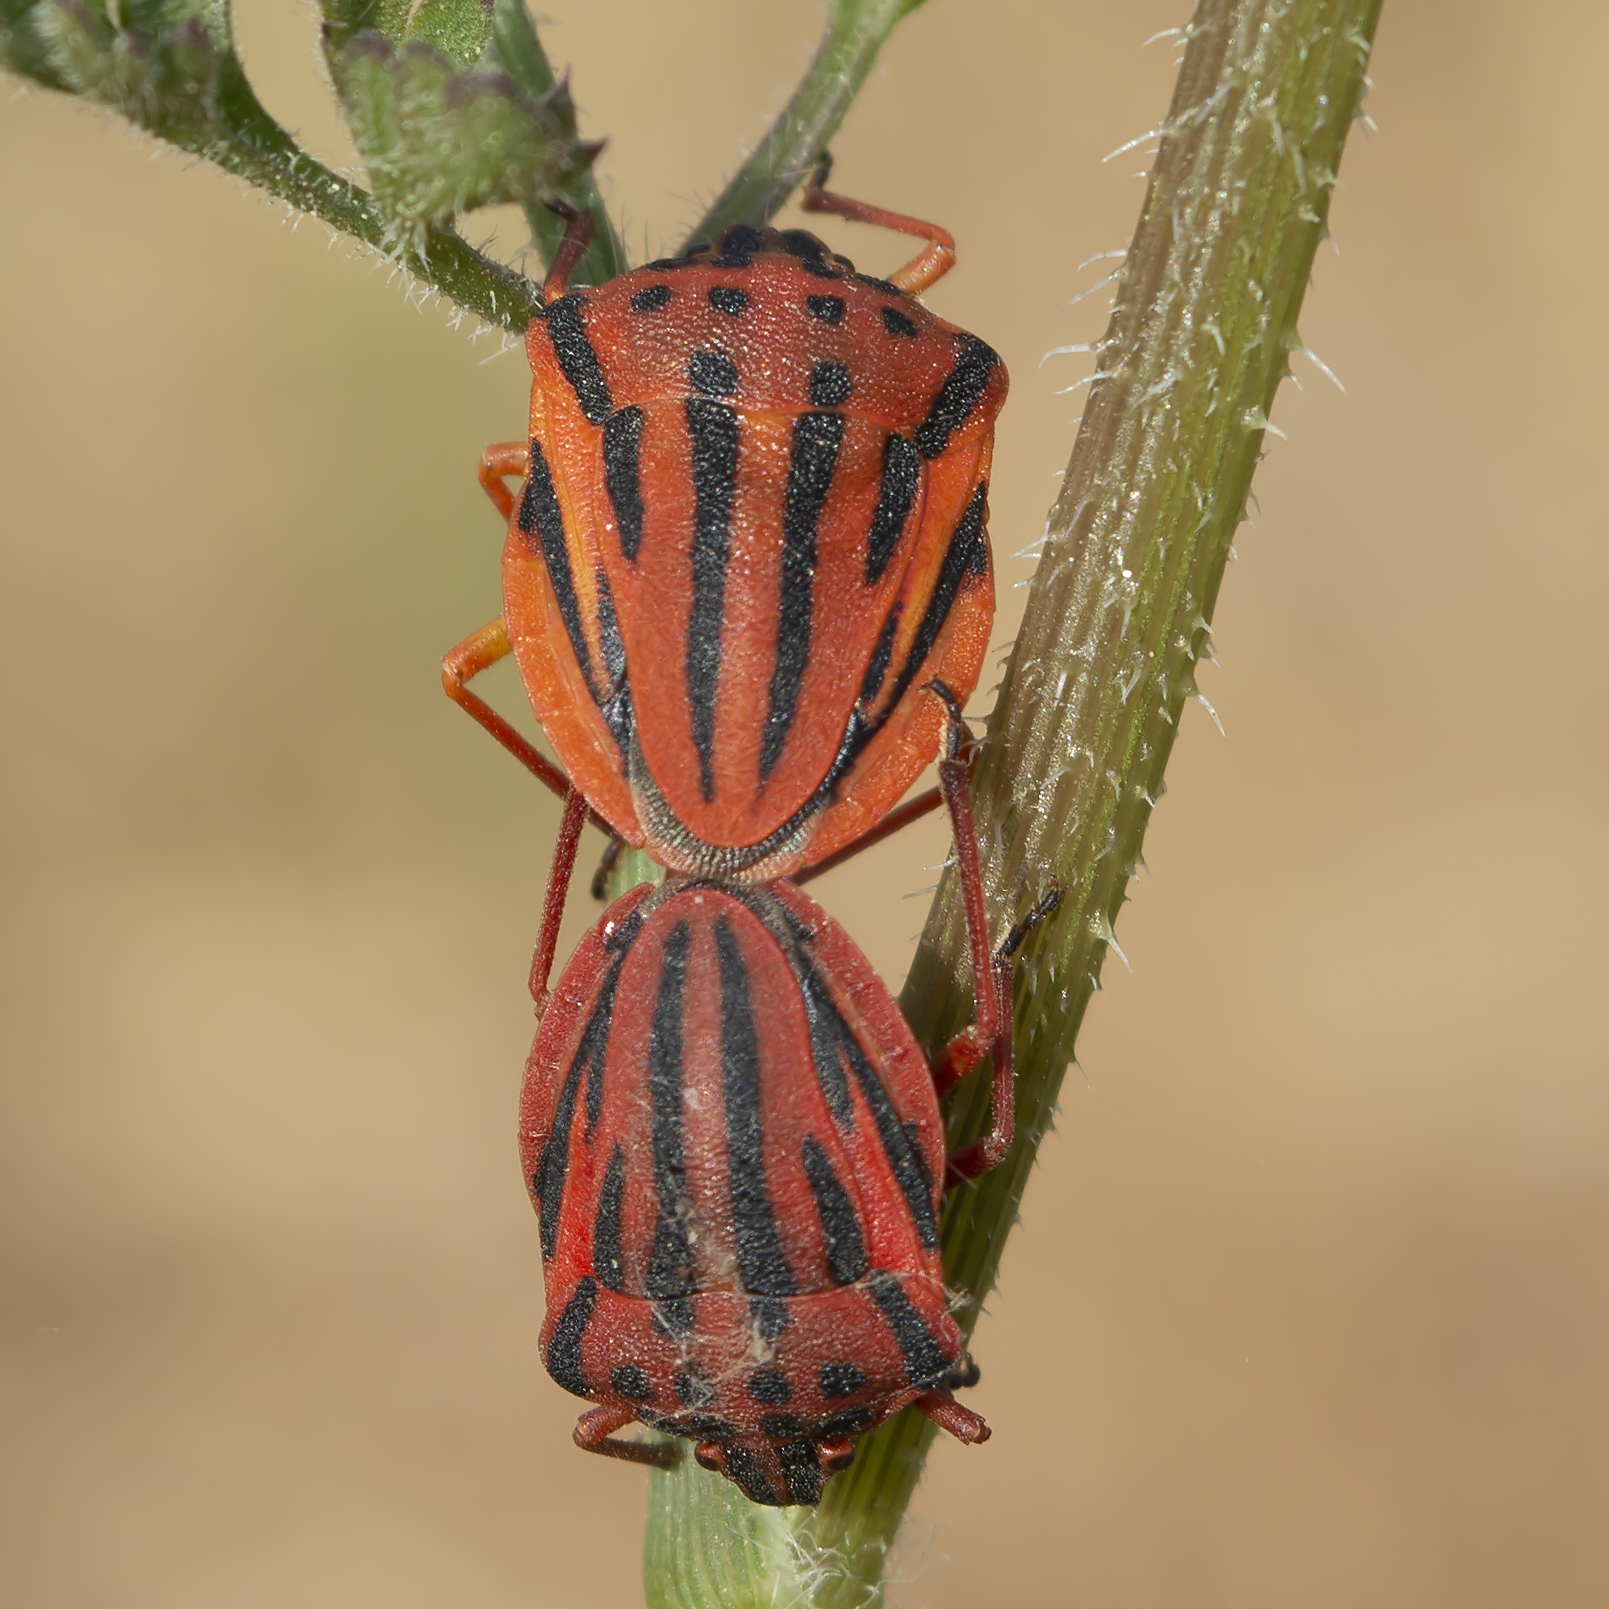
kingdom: Animalia
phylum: Arthropoda
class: Insecta
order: Hemiptera
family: Pentatomidae
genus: Graphosoma
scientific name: Graphosoma semipunctatum
